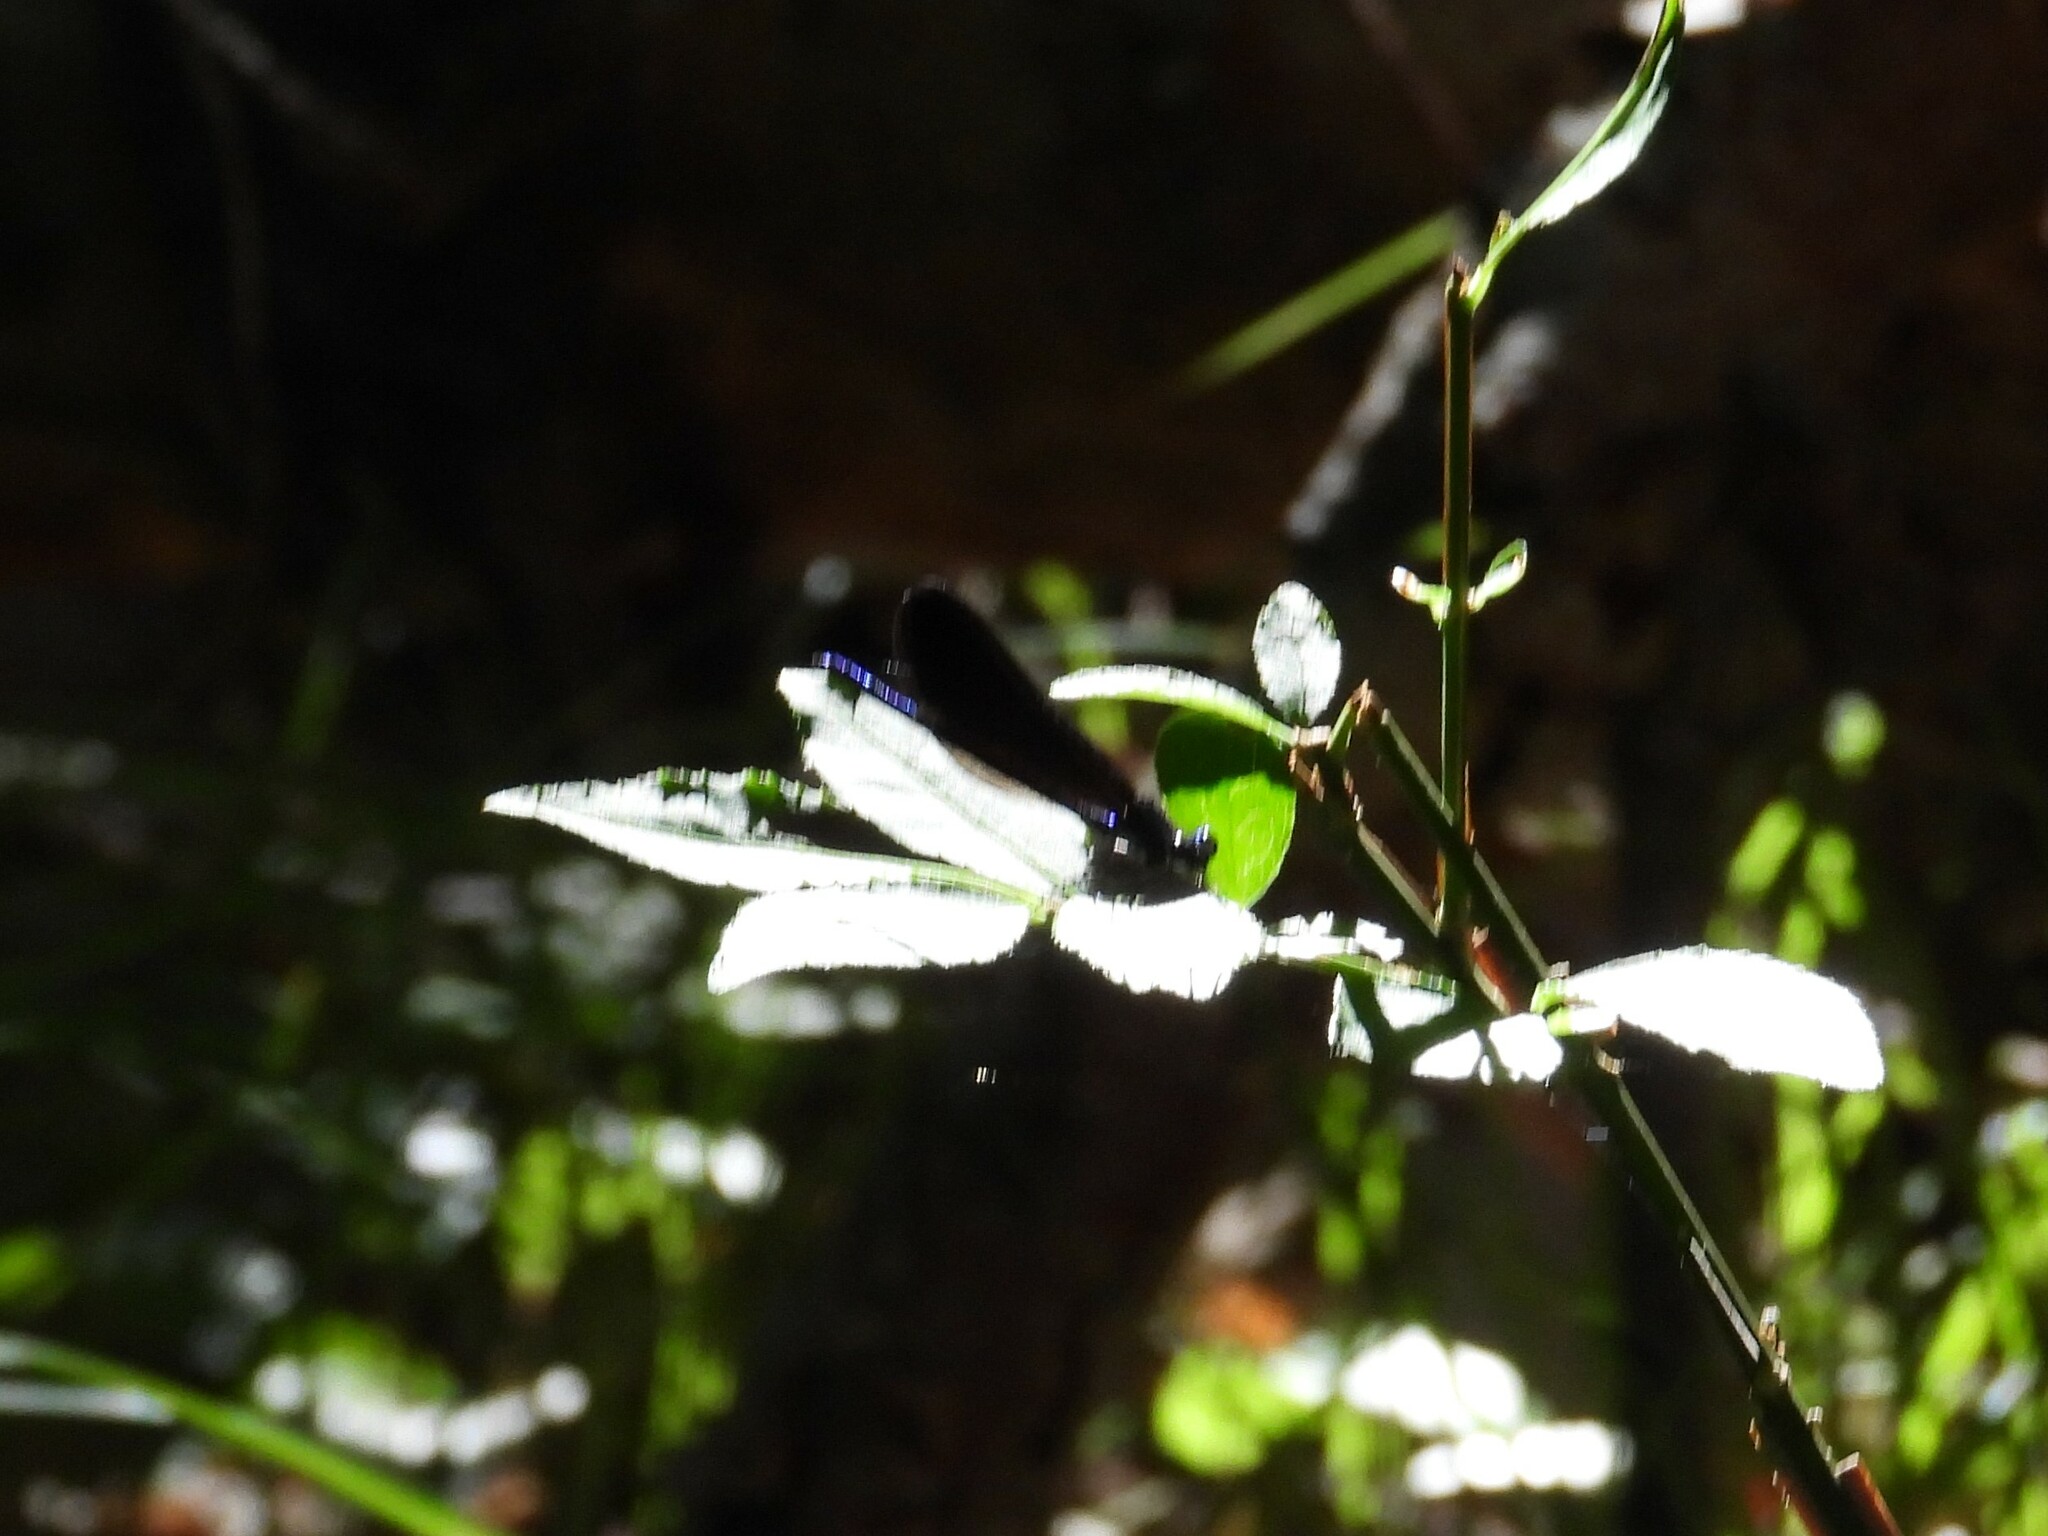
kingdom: Animalia
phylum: Arthropoda
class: Insecta
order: Odonata
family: Calopterygidae
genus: Calopteryx
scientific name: Calopteryx maculata
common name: Ebony jewelwing
